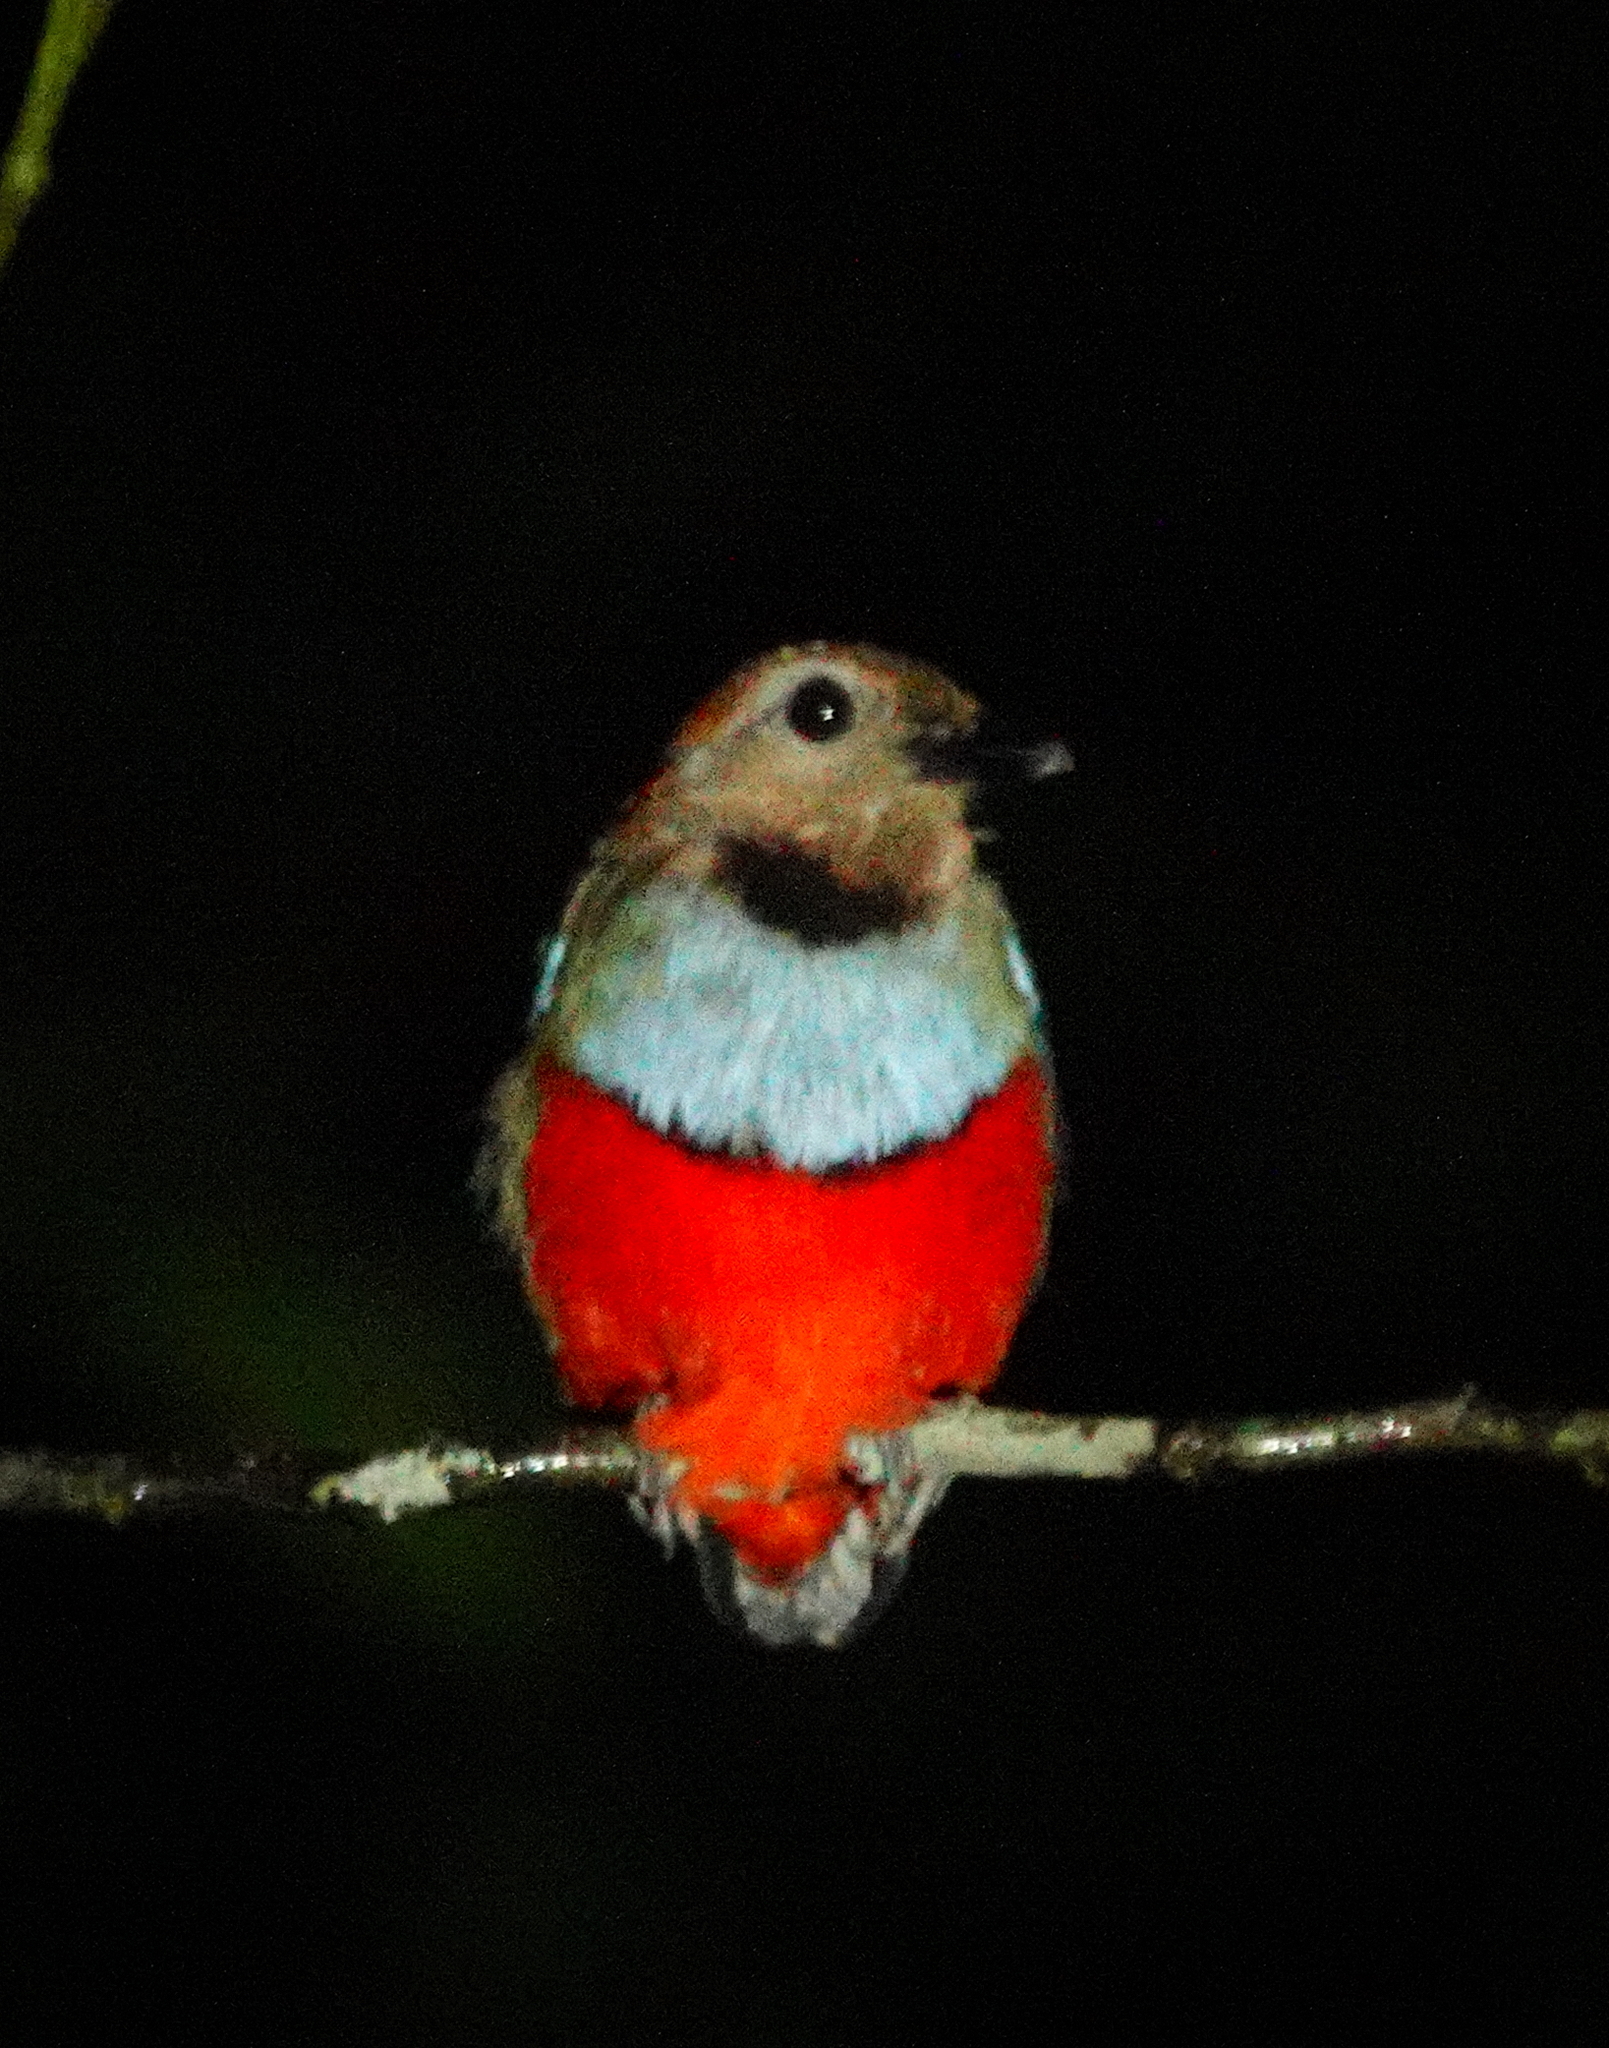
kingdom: Animalia
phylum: Chordata
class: Aves
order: Passeriformes
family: Pittidae
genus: Pitta
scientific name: Pitta erythrogaster
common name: Red-bellied pitta
